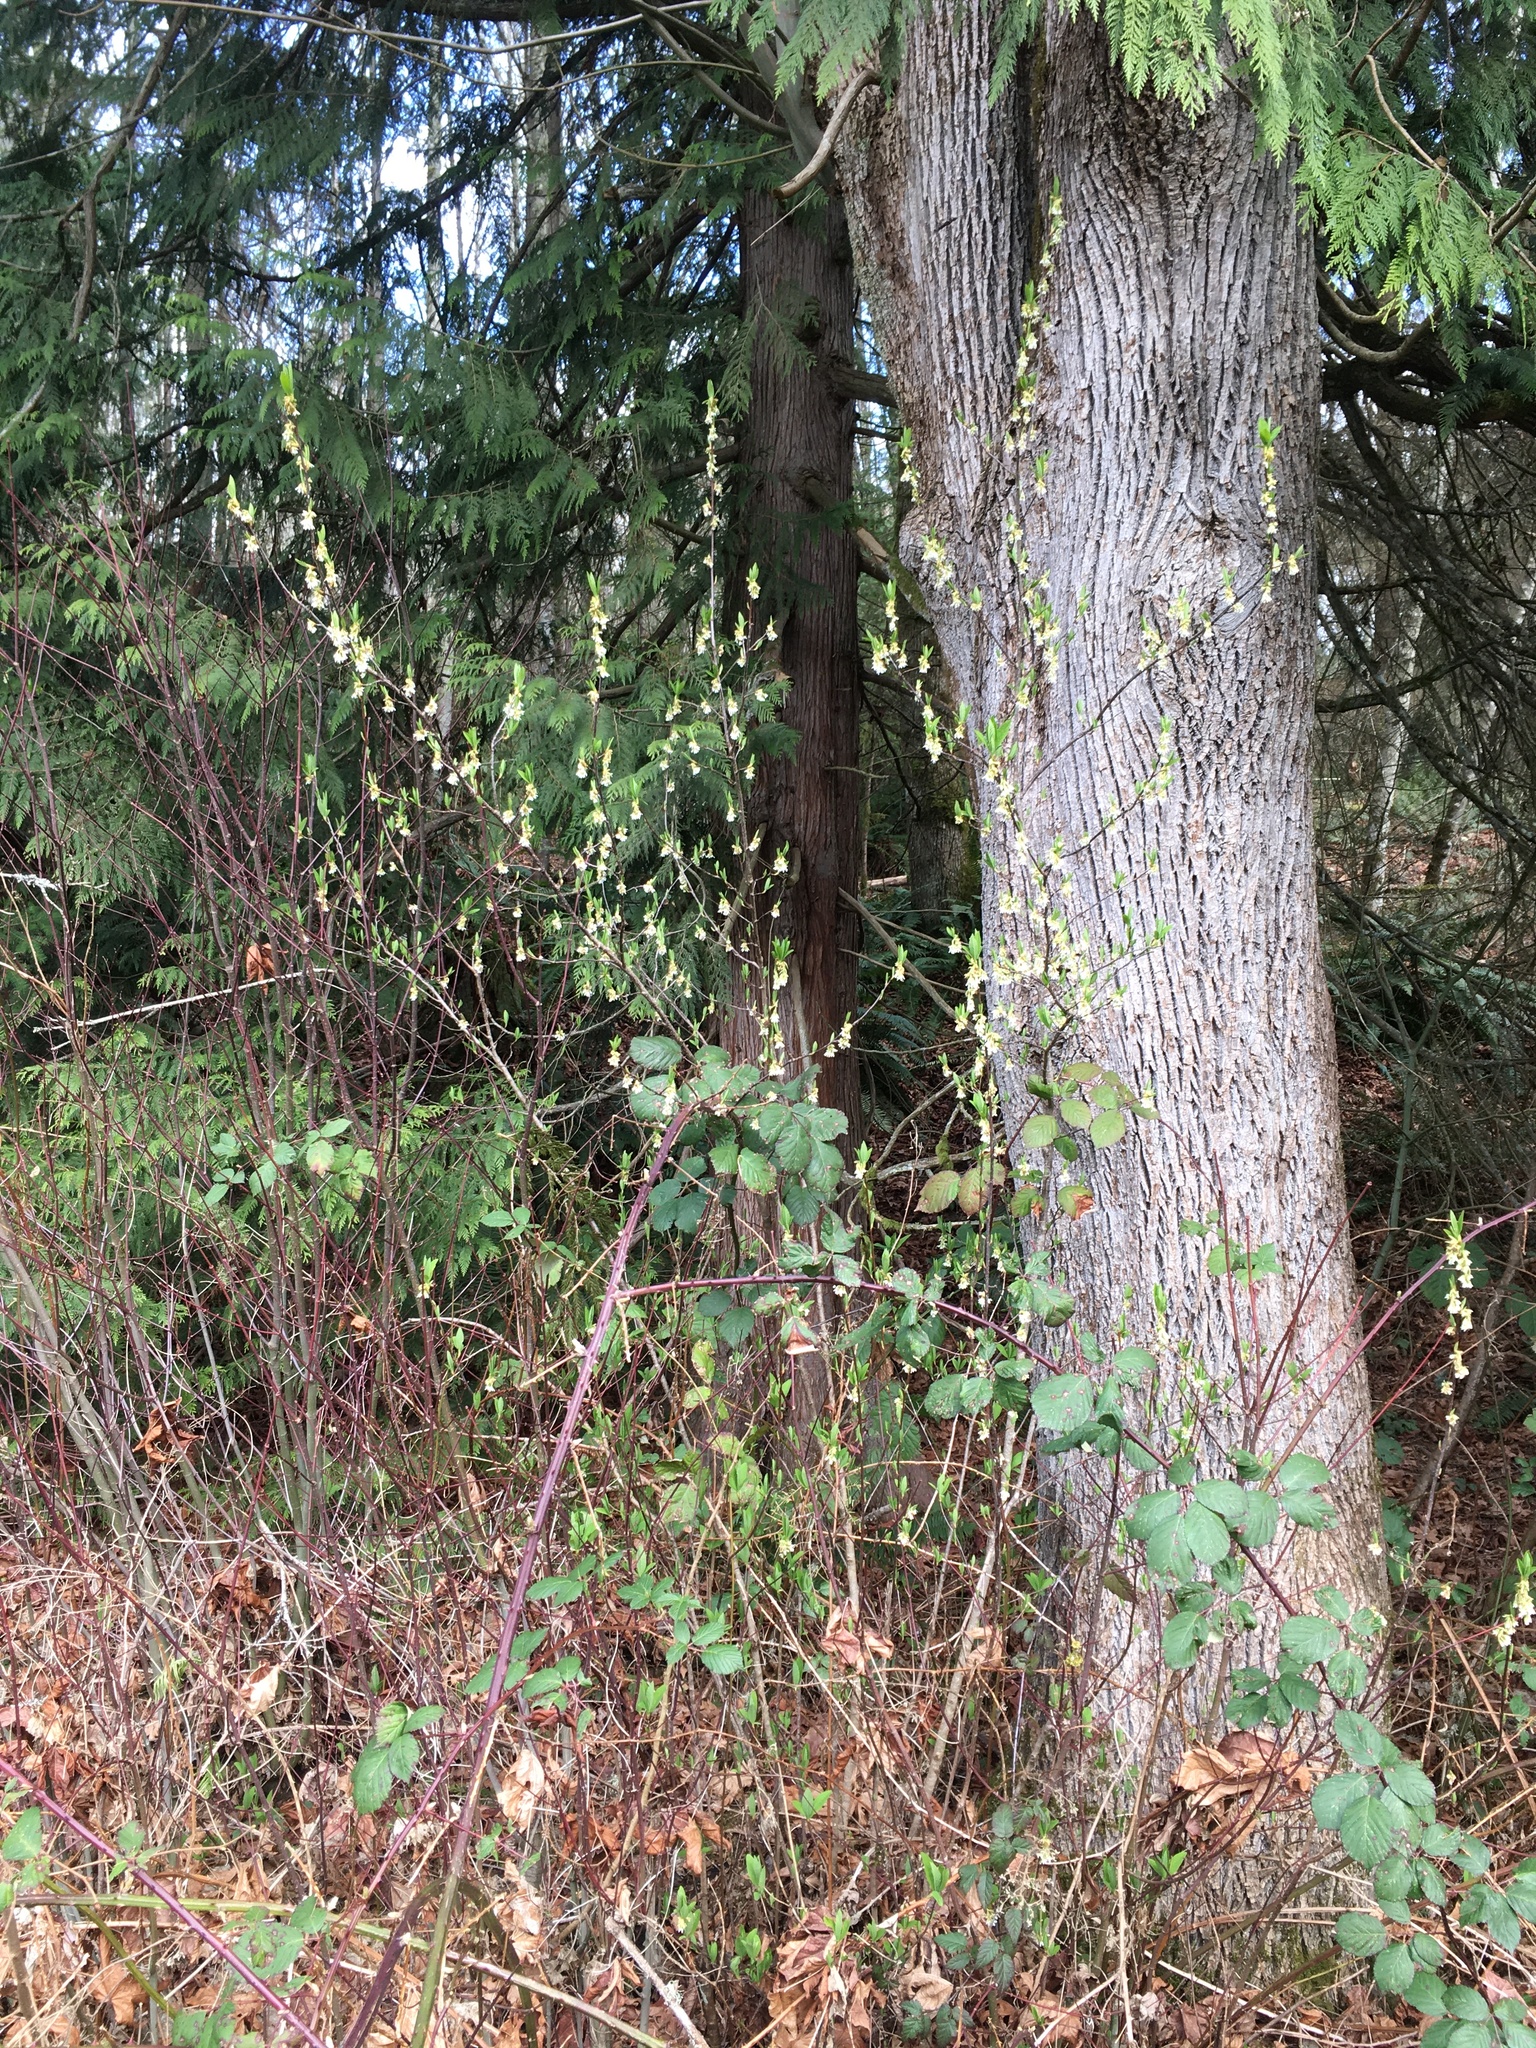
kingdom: Plantae
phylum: Tracheophyta
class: Magnoliopsida
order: Rosales
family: Rosaceae
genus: Oemleria
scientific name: Oemleria cerasiformis
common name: Osoberry
